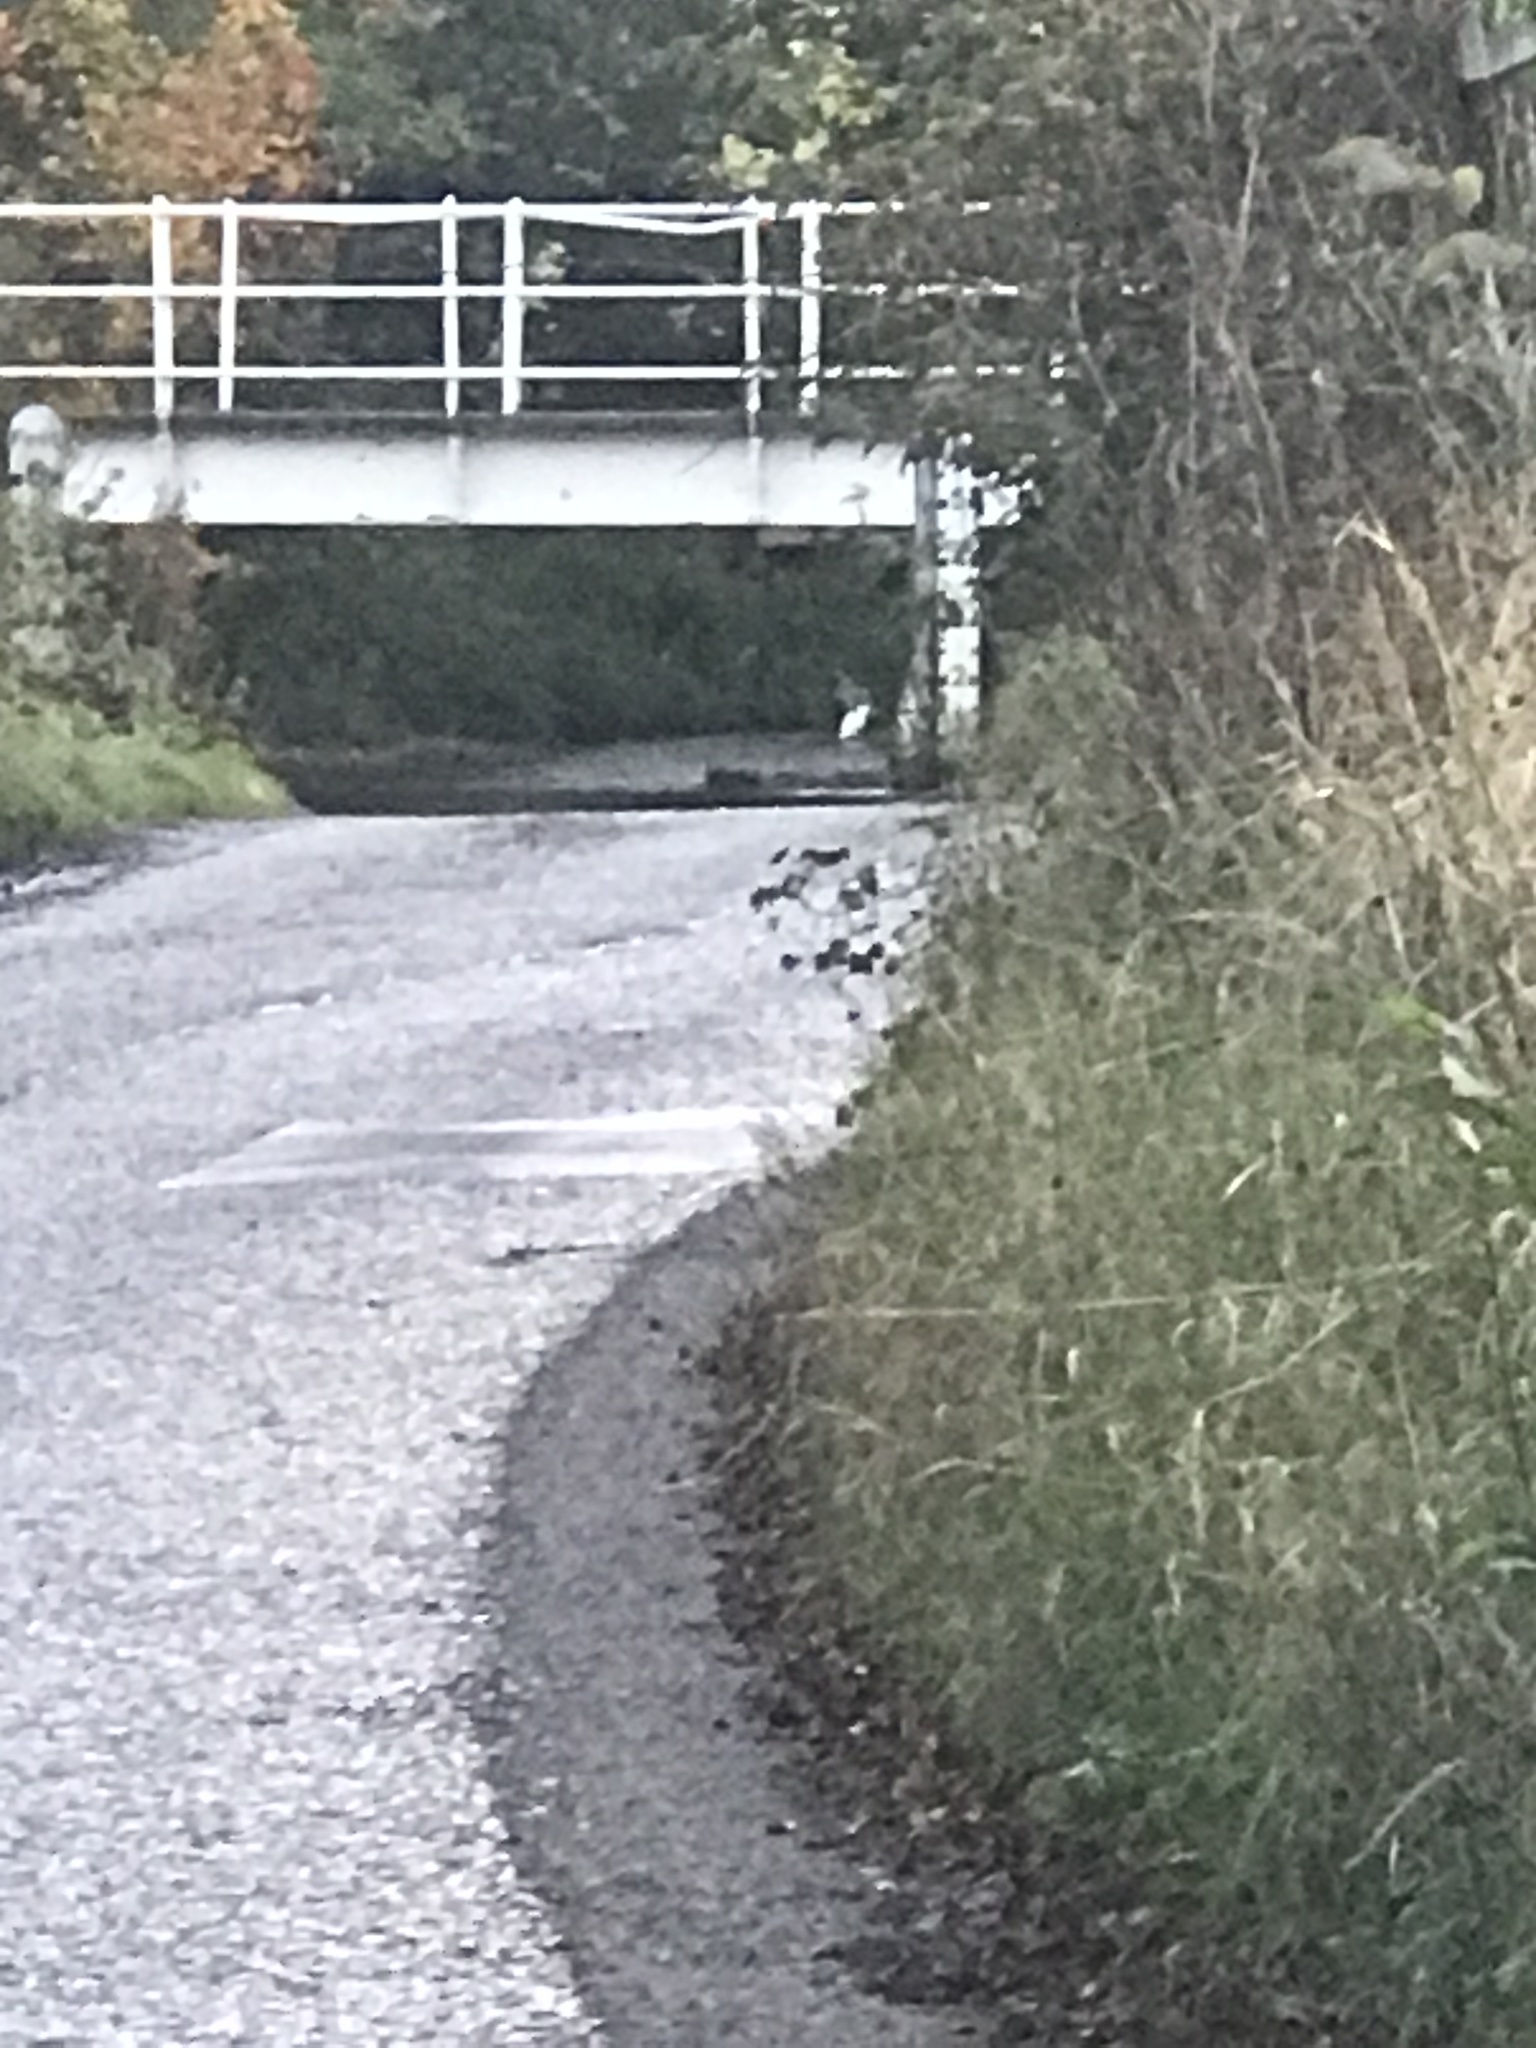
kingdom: Animalia
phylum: Chordata
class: Aves
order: Pelecaniformes
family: Ardeidae
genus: Egretta
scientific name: Egretta garzetta
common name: Little egret
